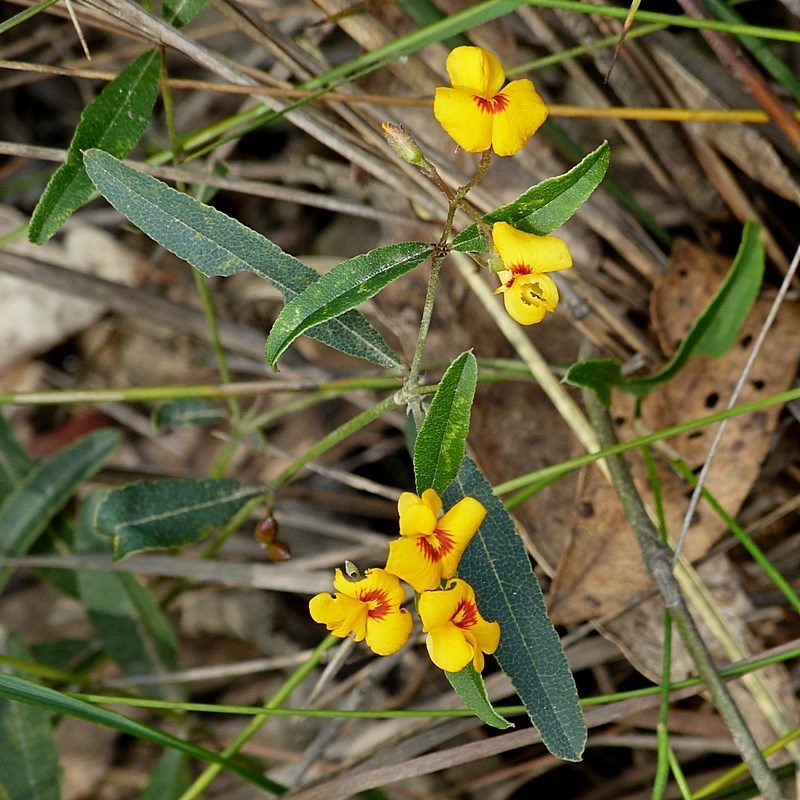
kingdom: Plantae
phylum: Tracheophyta
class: Magnoliopsida
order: Fabales
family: Fabaceae
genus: Podolobium
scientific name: Podolobium scandens
